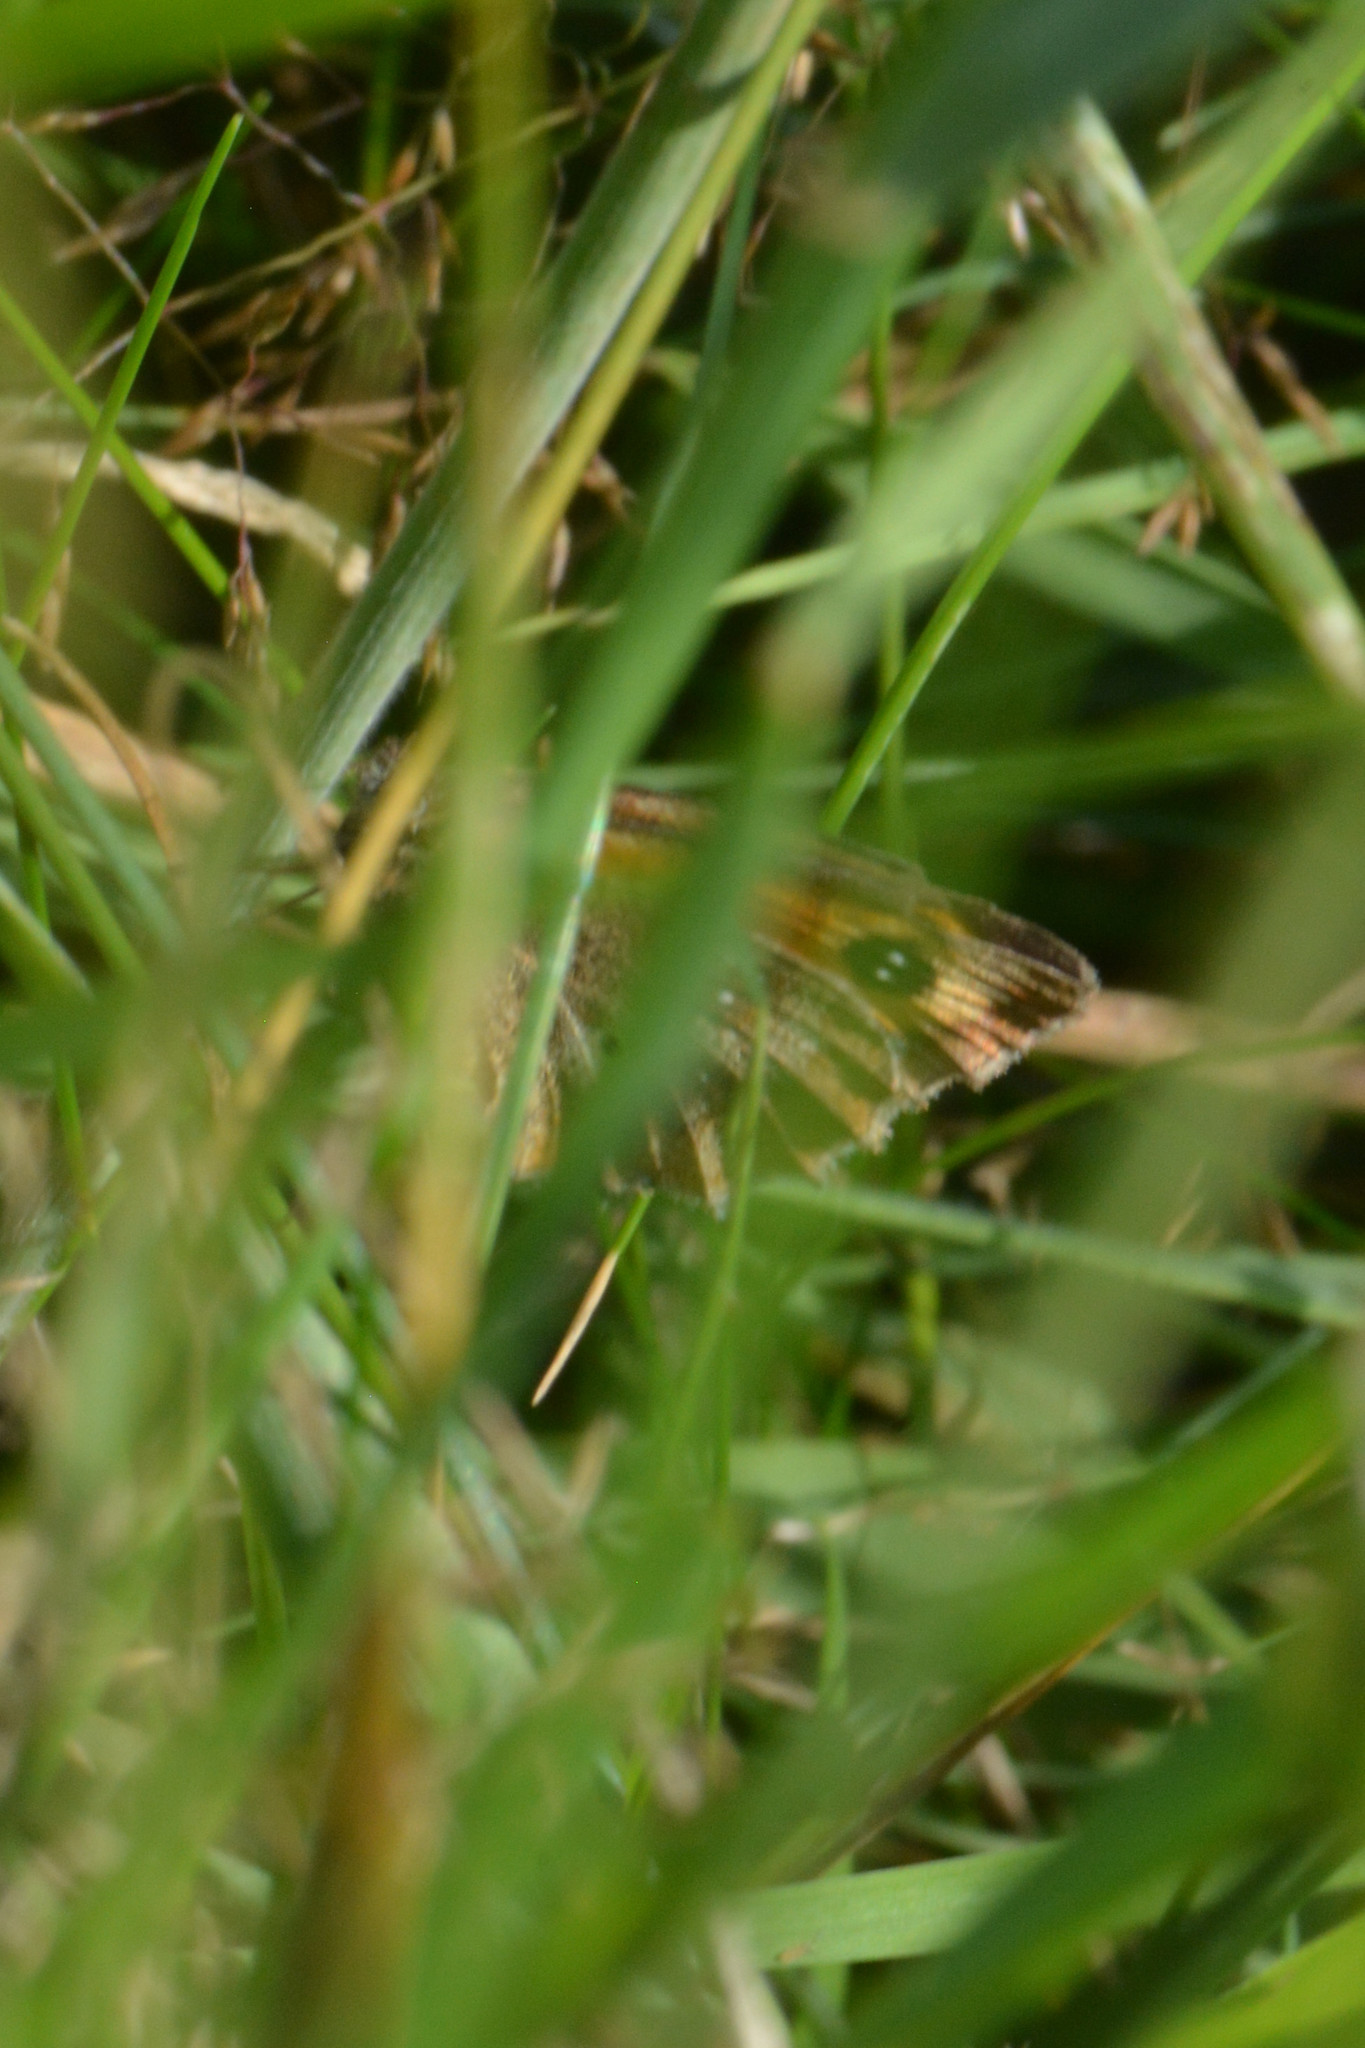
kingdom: Animalia
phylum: Arthropoda
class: Insecta
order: Lepidoptera
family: Nymphalidae
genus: Pyronia
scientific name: Pyronia tithonus
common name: Gatekeeper
